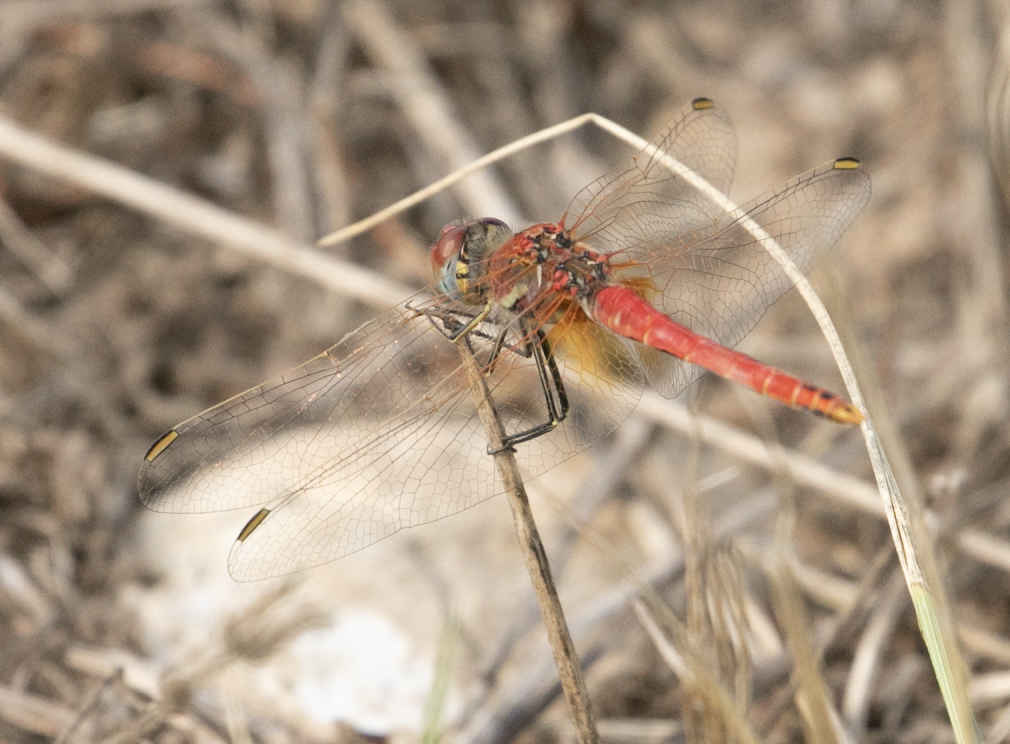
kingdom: Animalia
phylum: Arthropoda
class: Insecta
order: Odonata
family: Libellulidae
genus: Sympetrum
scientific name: Sympetrum fonscolombii
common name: Red-veined darter
